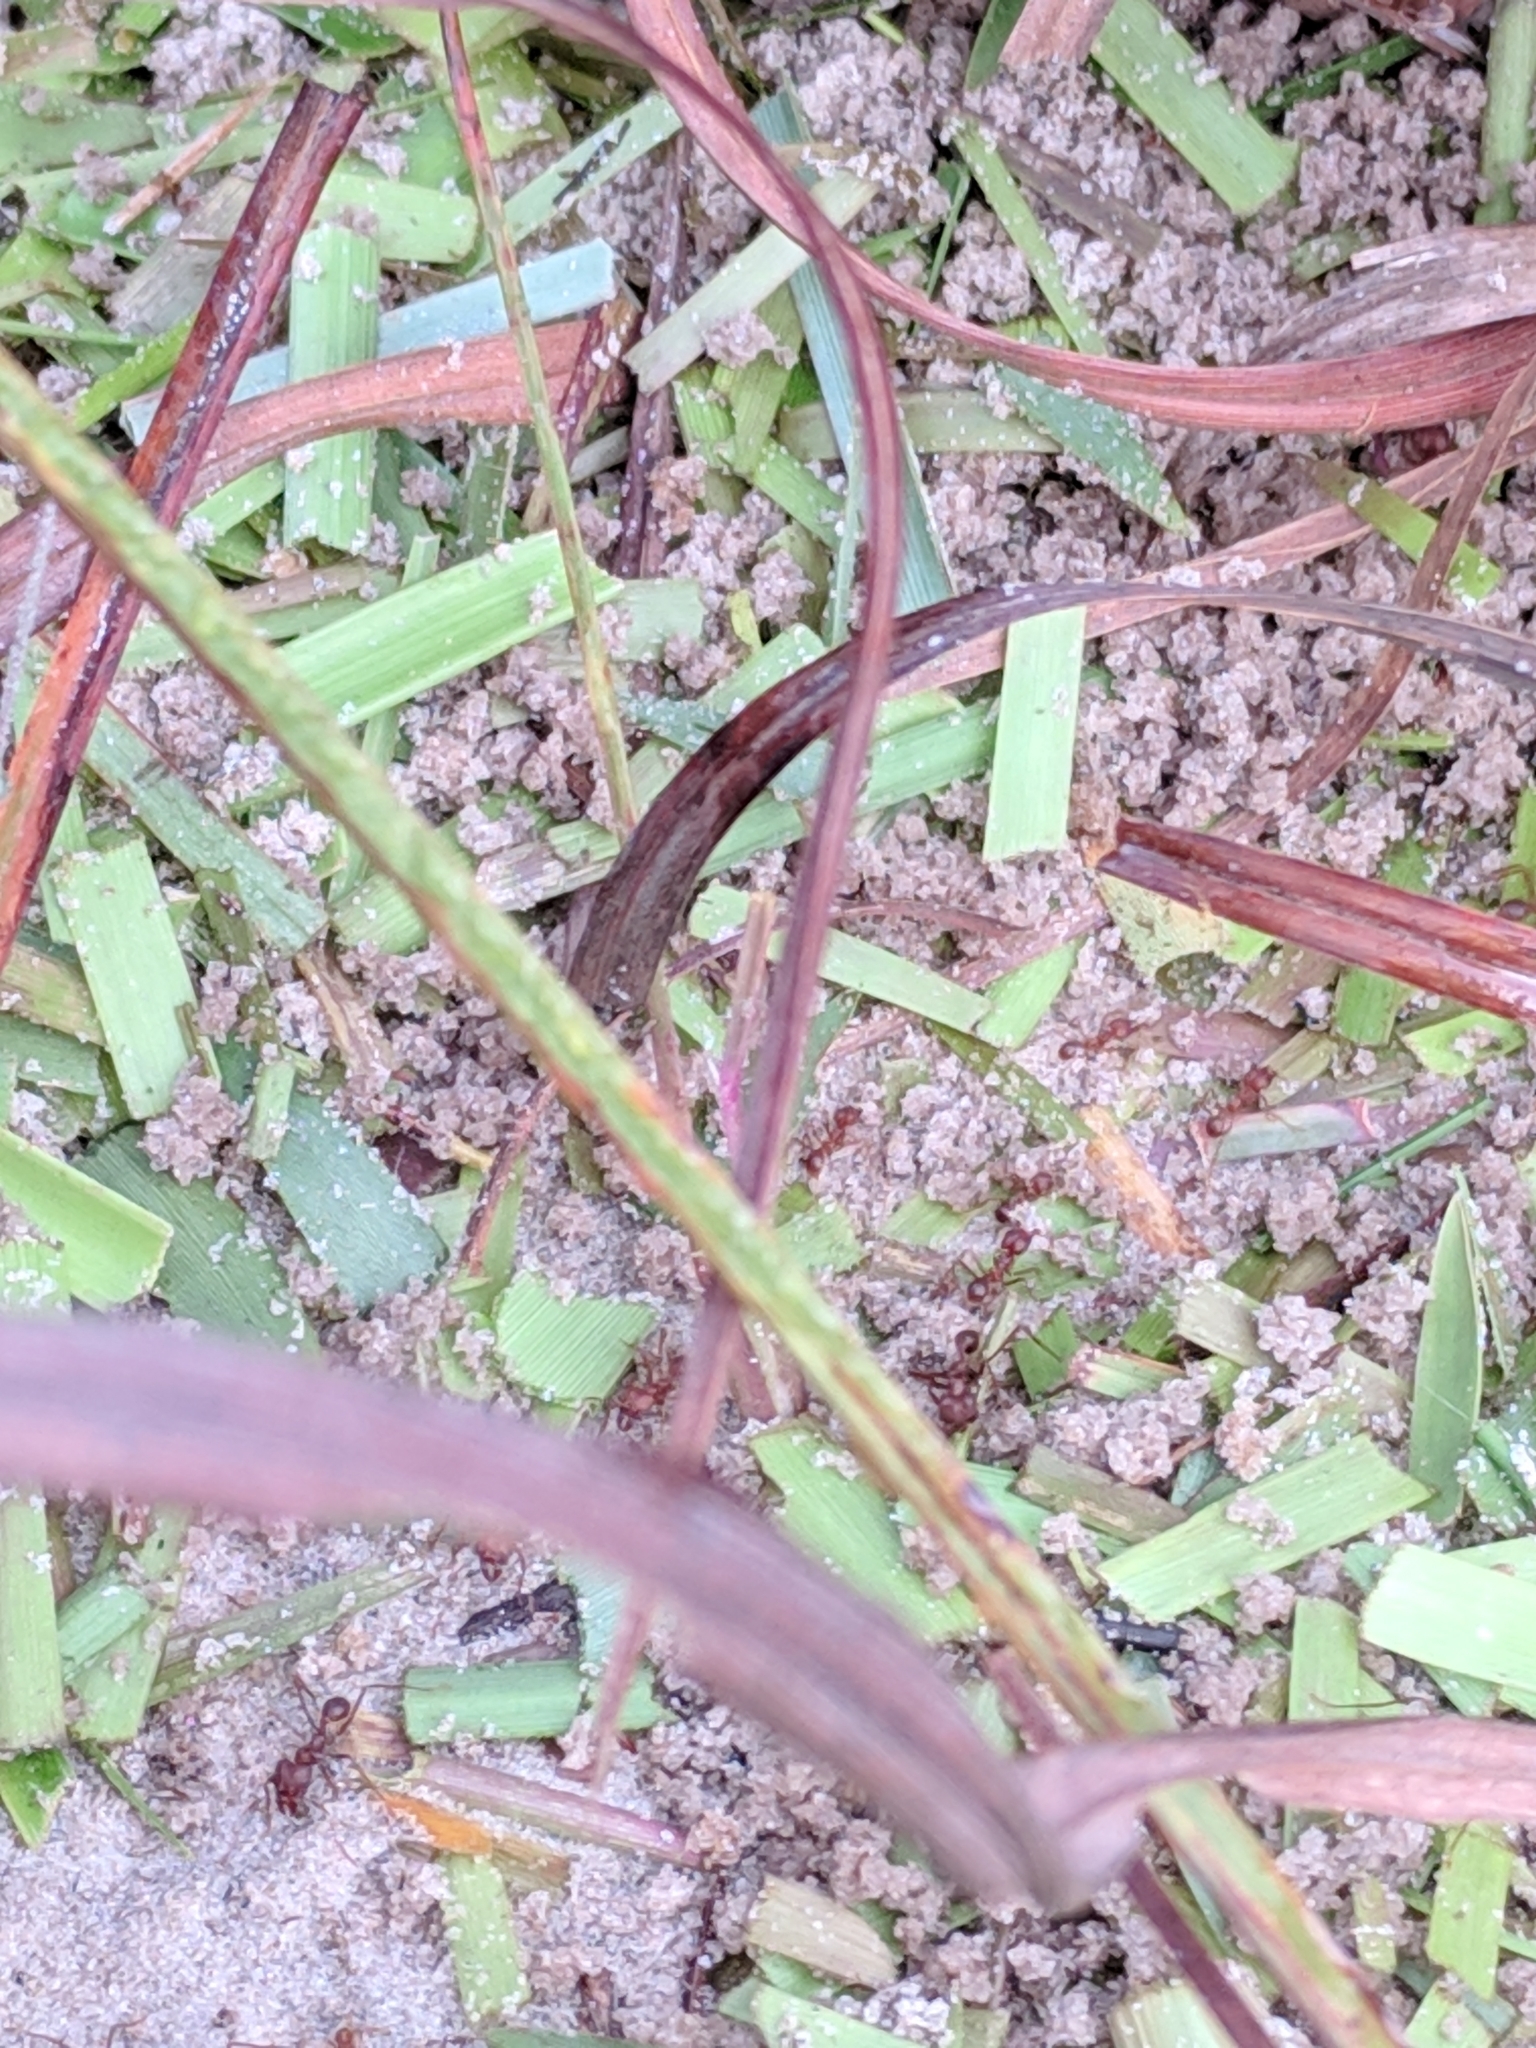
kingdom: Animalia
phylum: Arthropoda
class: Insecta
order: Hymenoptera
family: Formicidae
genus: Atta
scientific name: Atta texana
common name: Texas leafcutting ant
